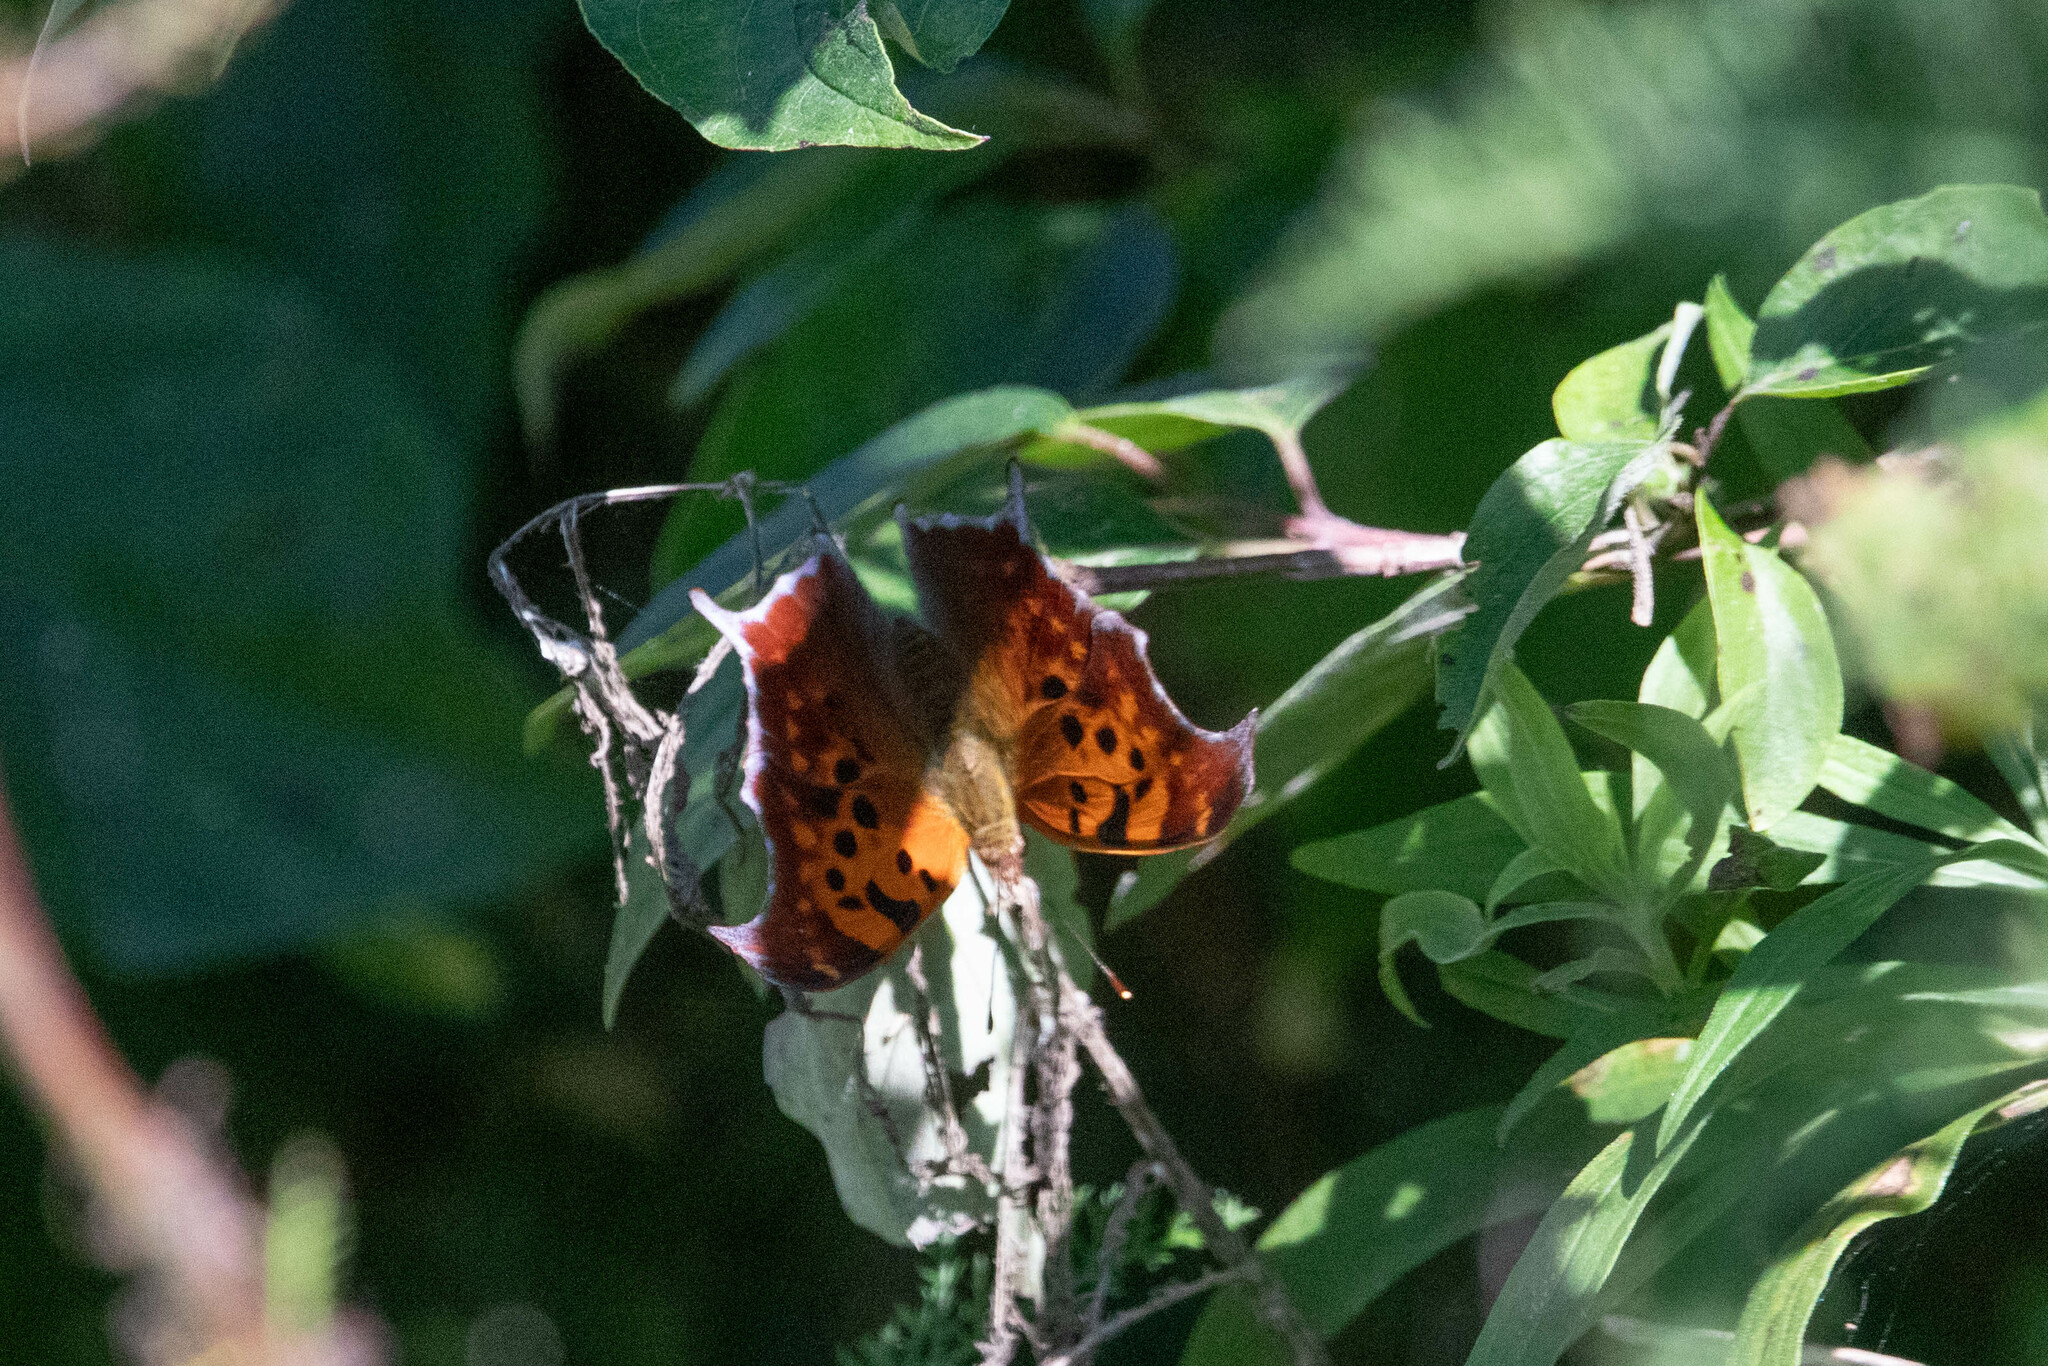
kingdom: Animalia
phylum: Arthropoda
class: Insecta
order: Lepidoptera
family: Nymphalidae
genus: Polygonia
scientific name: Polygonia interrogationis
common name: Question mark
